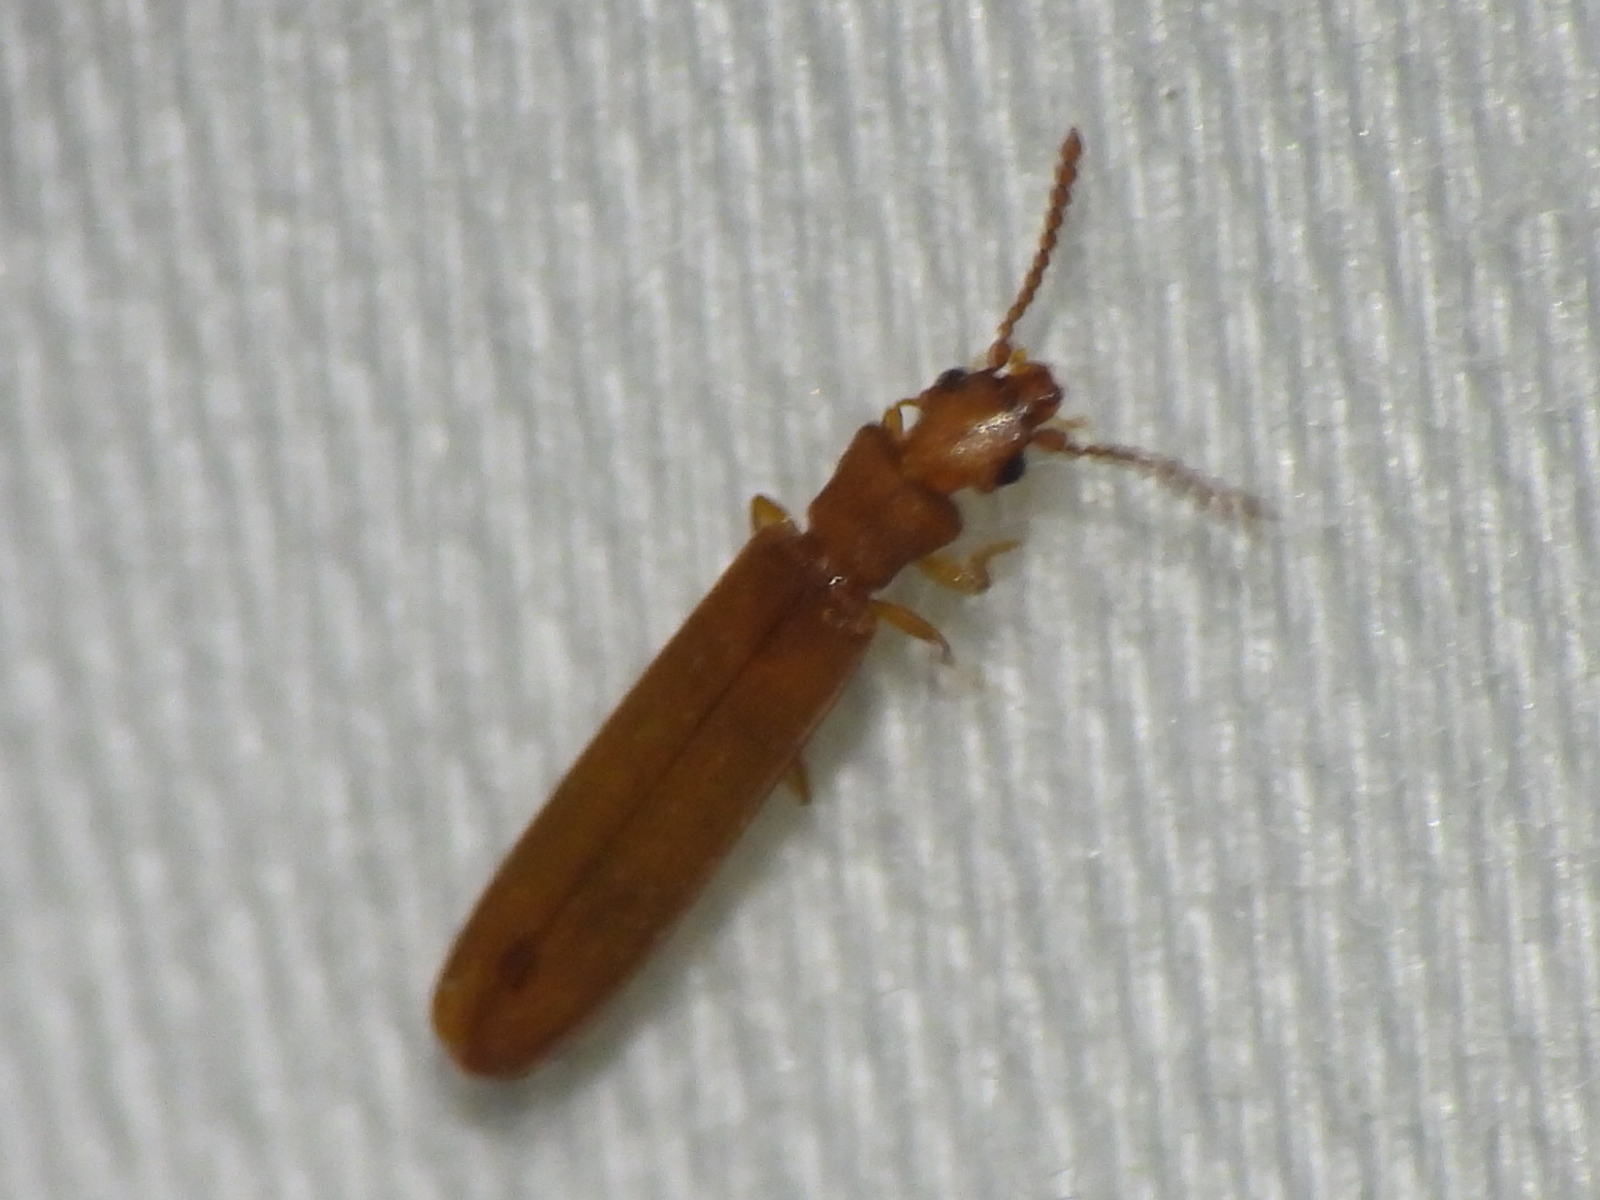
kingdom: Animalia
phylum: Arthropoda
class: Insecta
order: Coleoptera
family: Mycteridae
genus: Hemipeplus
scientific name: Hemipeplus microphthalmus
